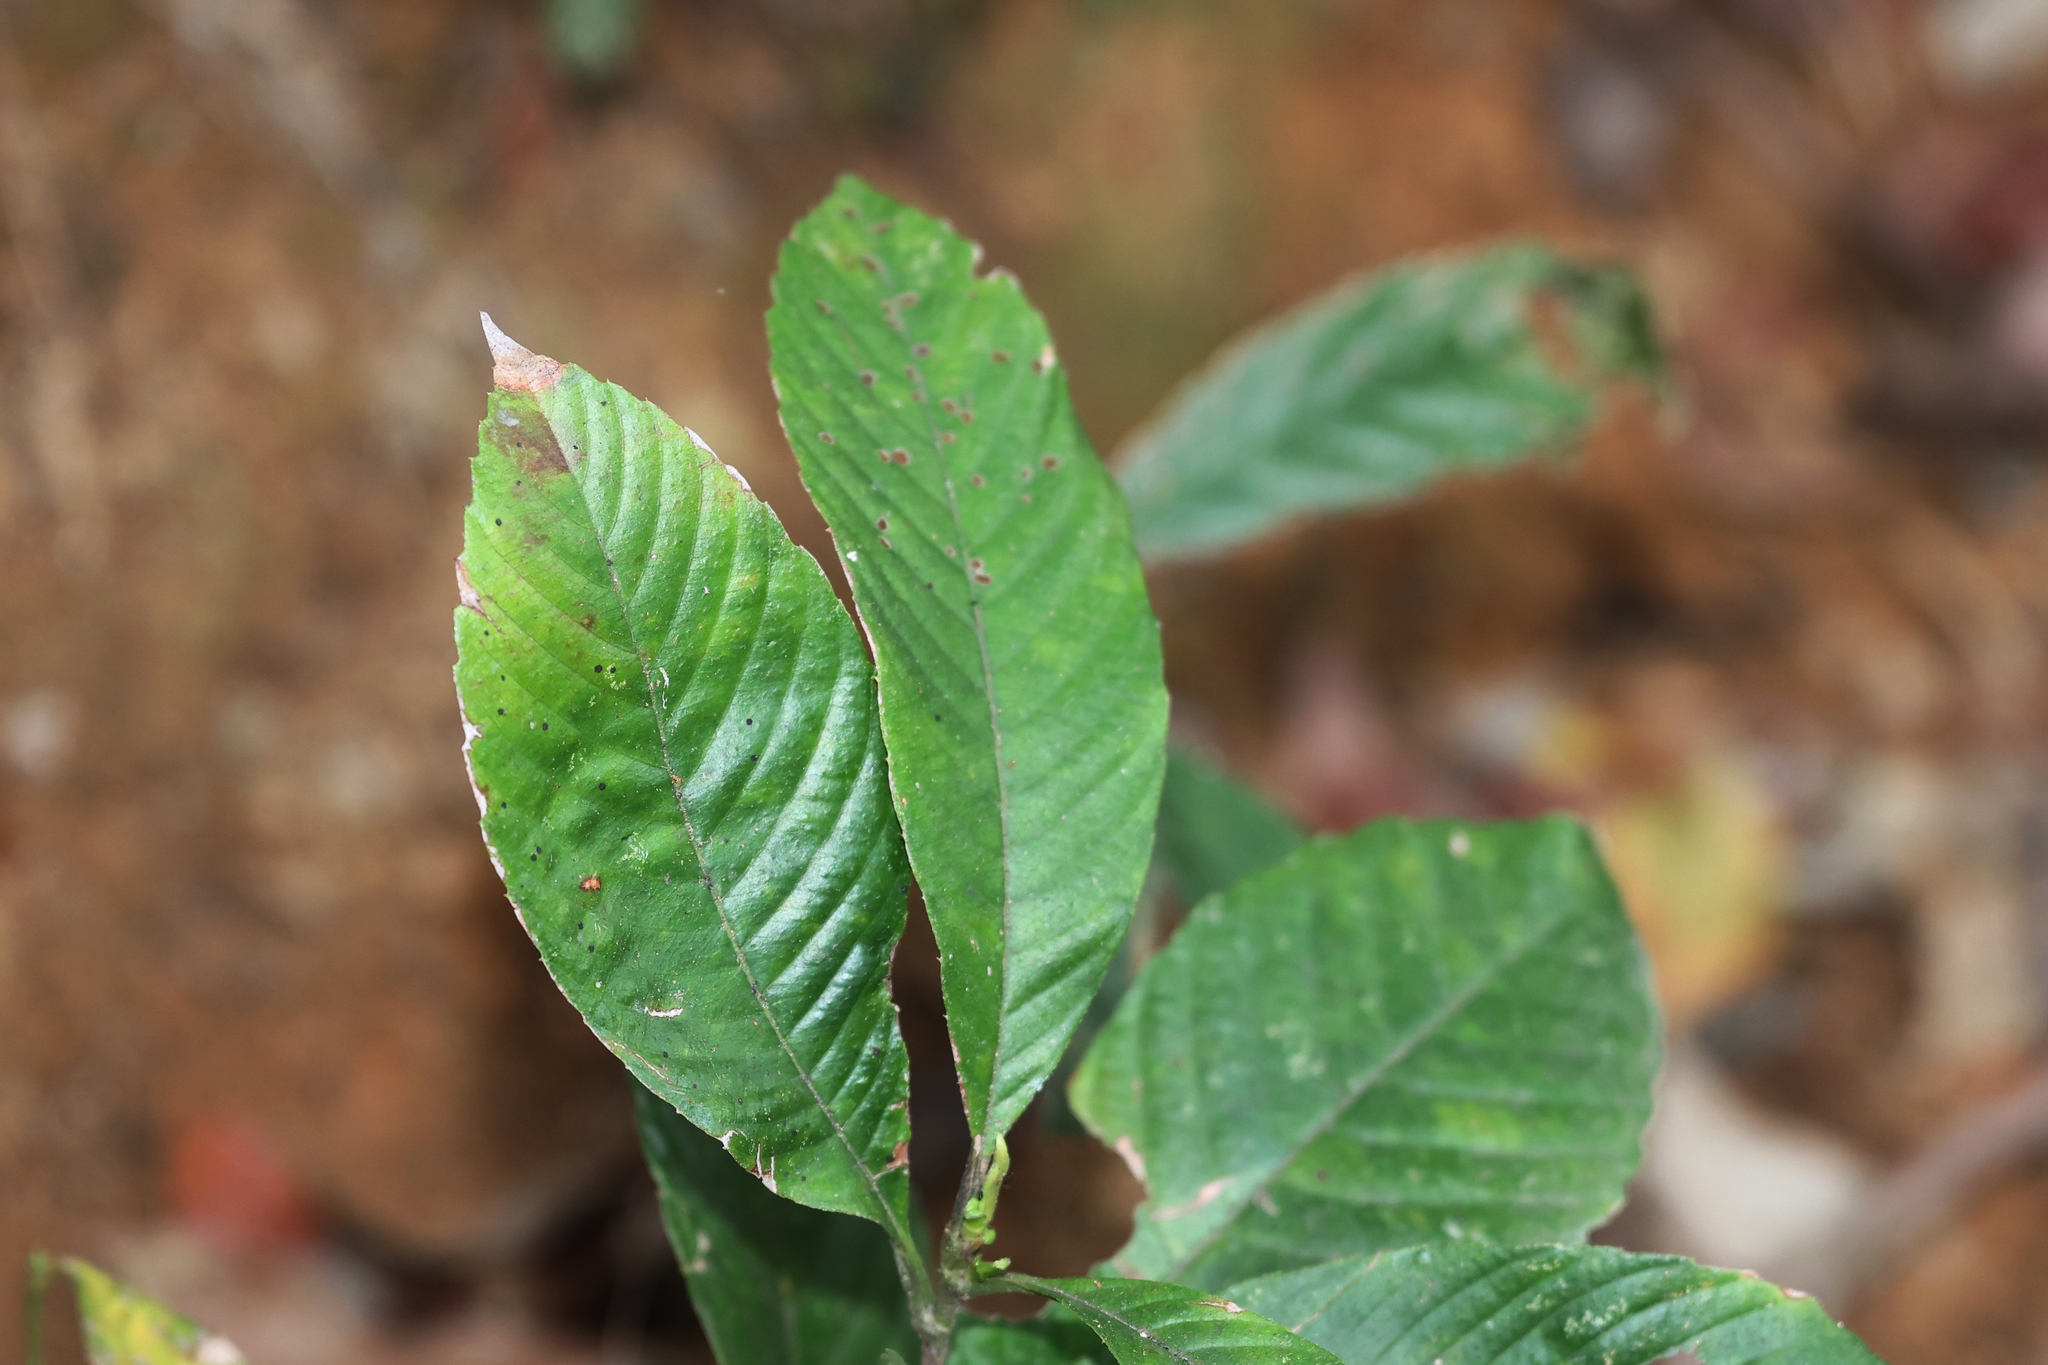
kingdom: Plantae
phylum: Tracheophyta
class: Magnoliopsida
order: Dilleniales
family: Dilleniaceae
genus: Tetracera
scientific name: Tetracera sarmentosa
